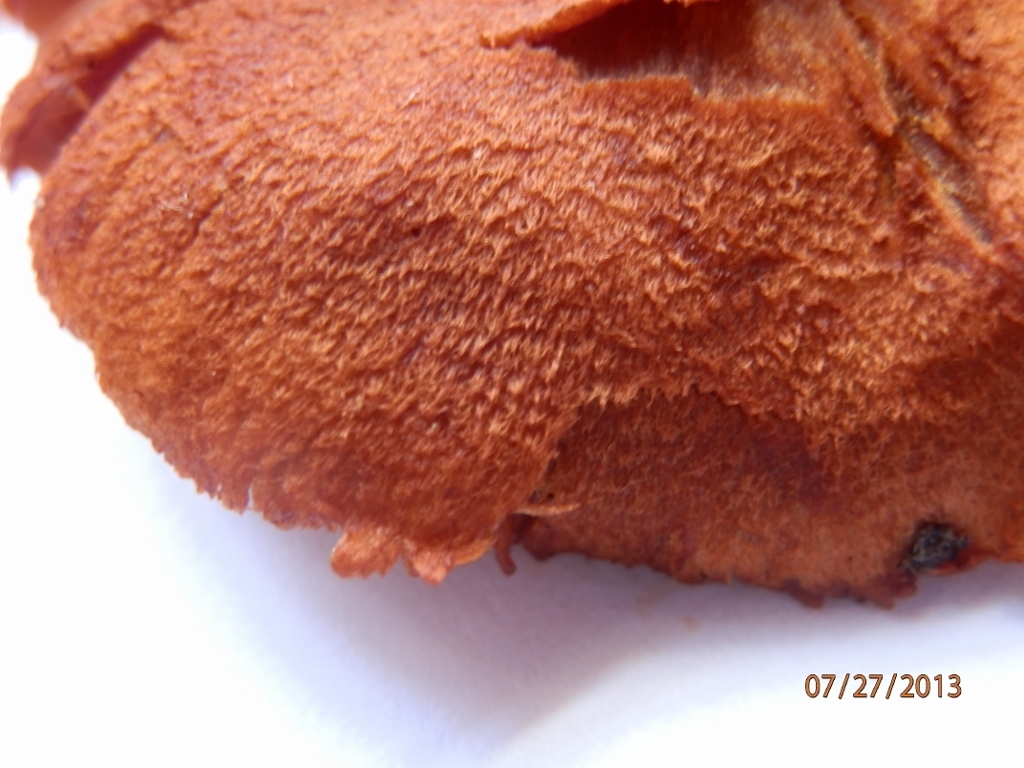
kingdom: Fungi
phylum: Basidiomycota
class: Agaricomycetes
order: Agaricales
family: Cortinariaceae
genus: Cortinarius
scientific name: Cortinarius cinnabarinus
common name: Cinnabar webcap
